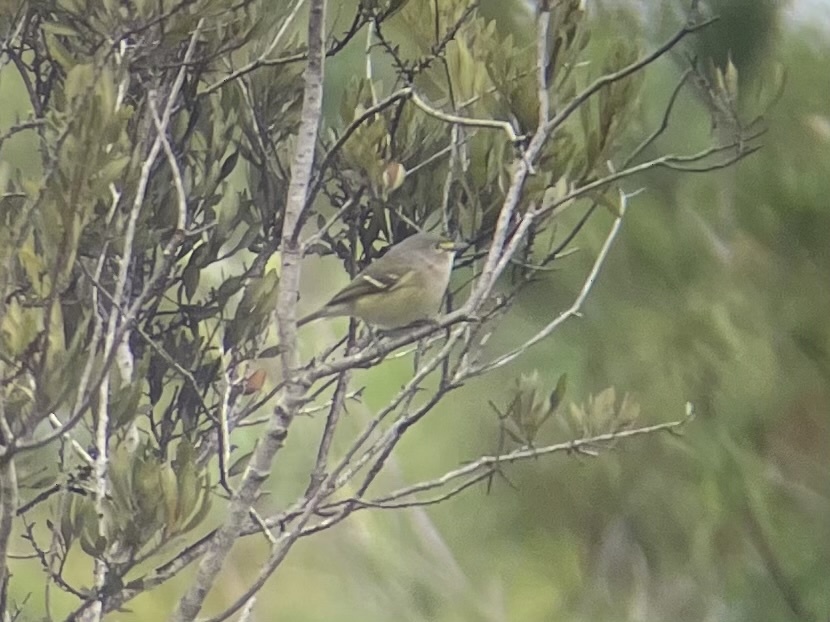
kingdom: Animalia
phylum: Chordata
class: Aves
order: Passeriformes
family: Vireonidae
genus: Vireo
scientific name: Vireo griseus
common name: White-eyed vireo
